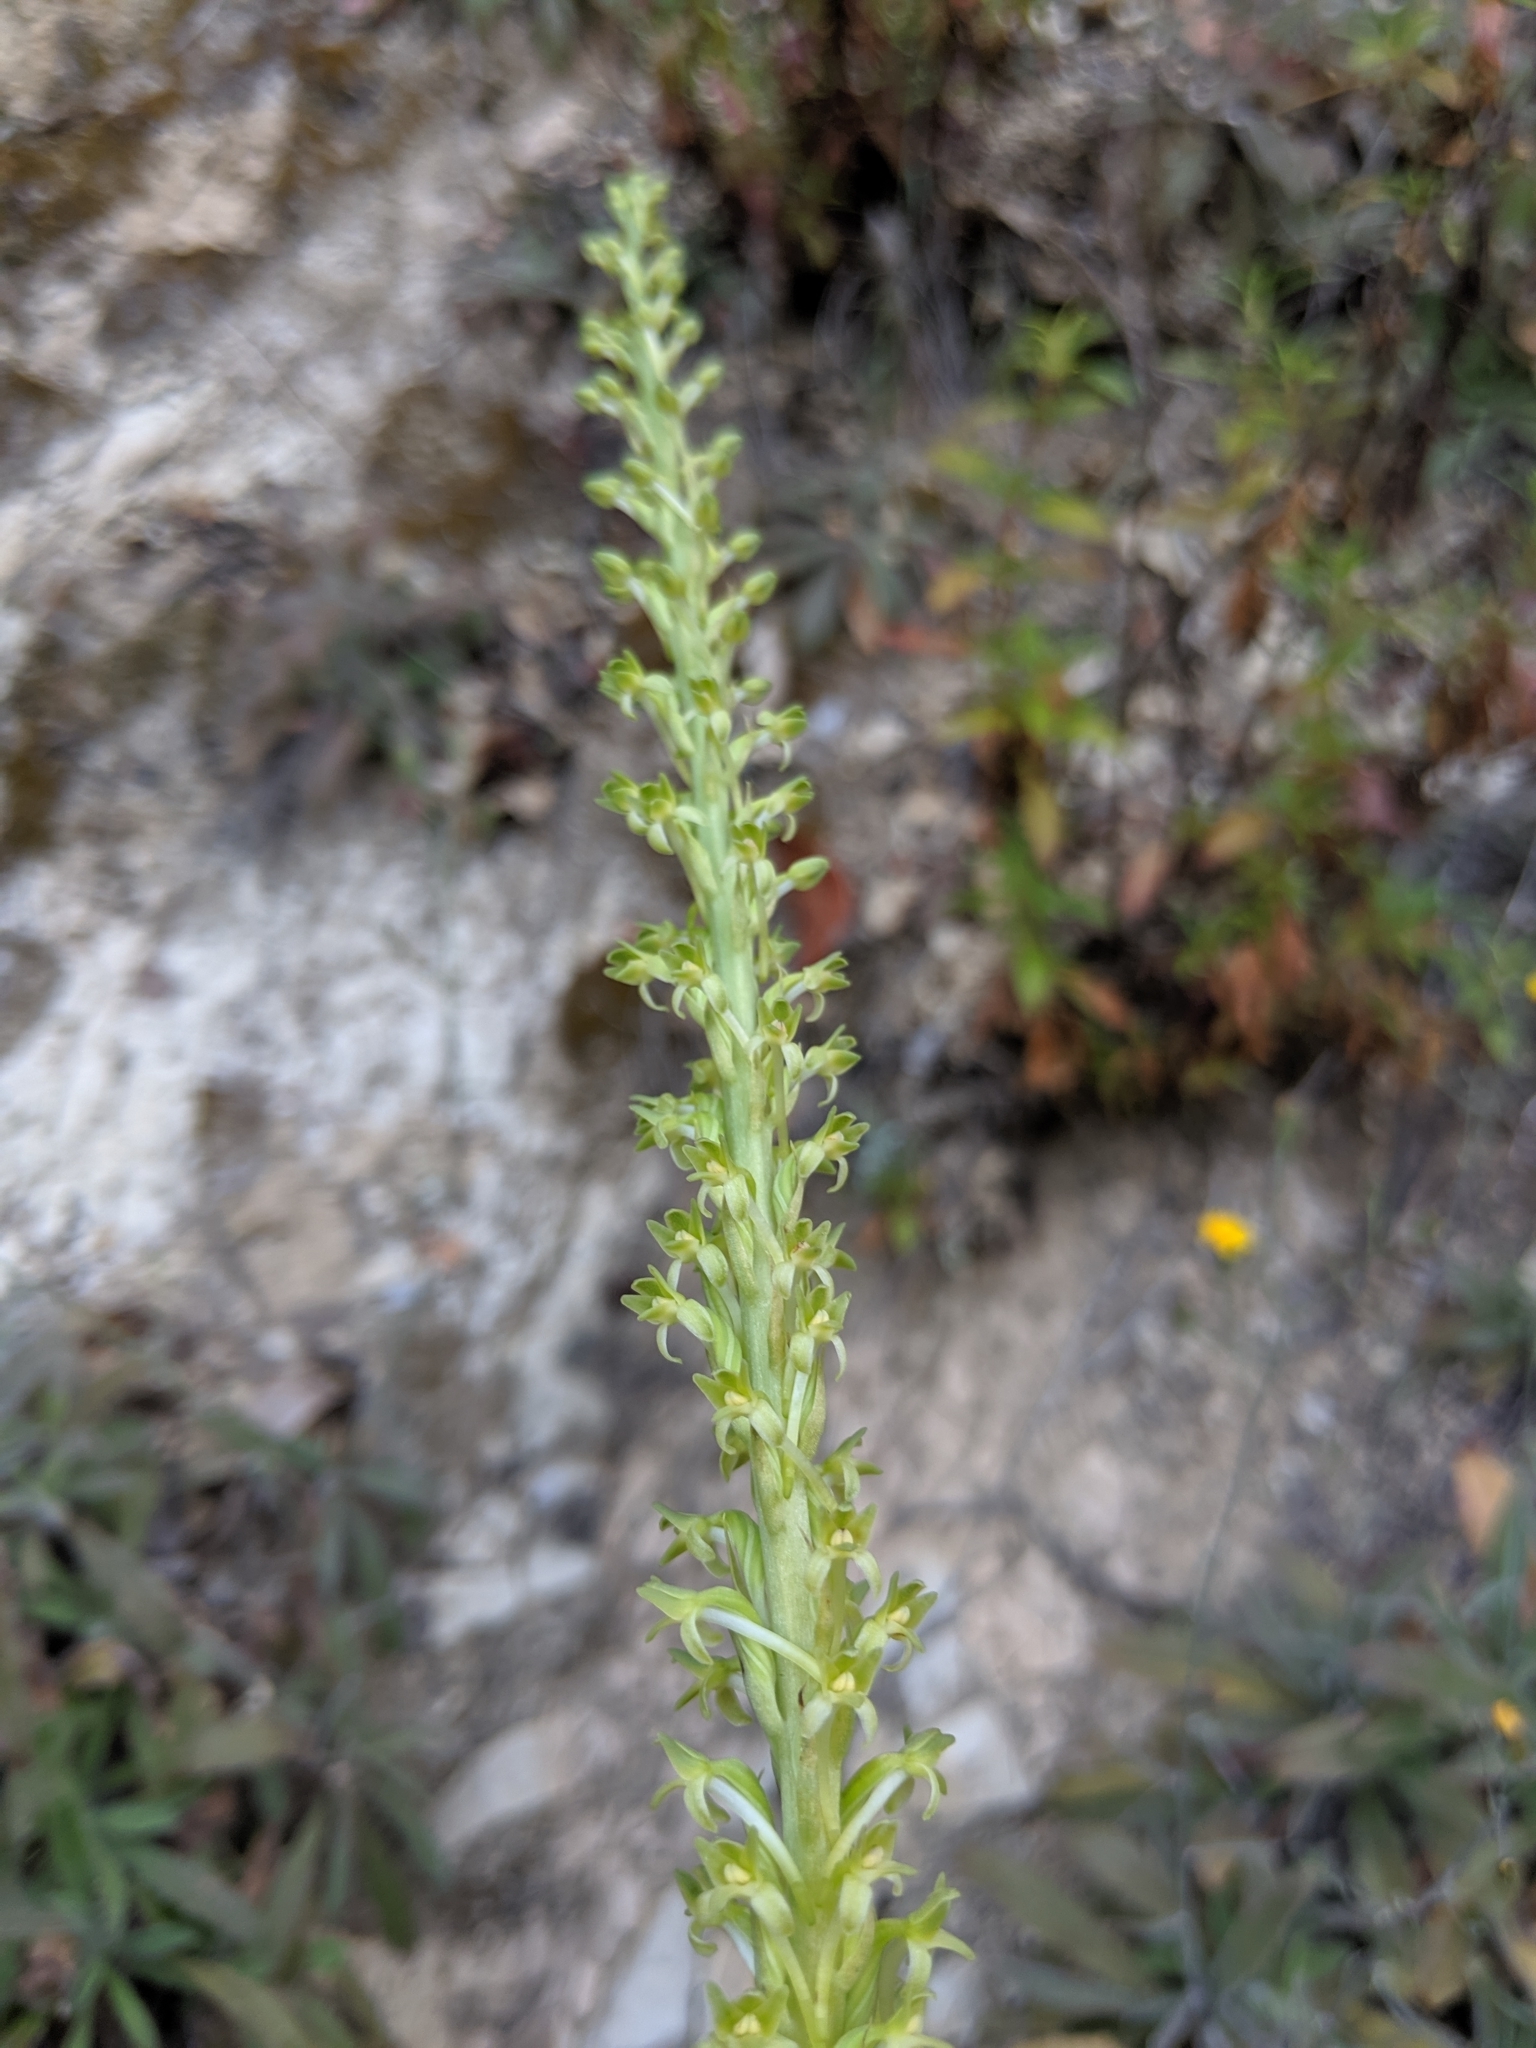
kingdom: Plantae
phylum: Tracheophyta
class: Liliopsida
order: Asparagales
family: Orchidaceae
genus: Platanthera
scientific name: Platanthera elongata
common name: Dense-flowered rein orchid
